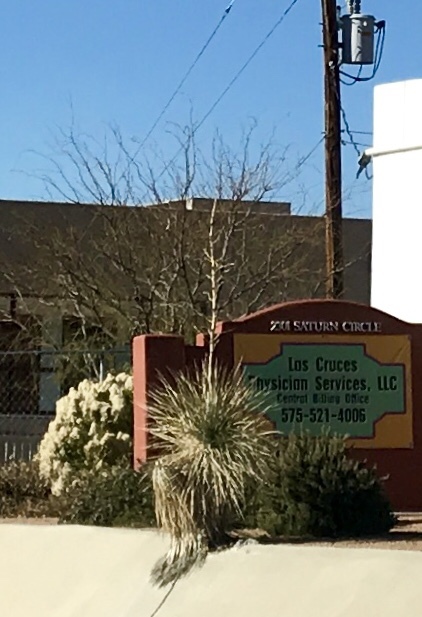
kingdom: Plantae
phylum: Tracheophyta
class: Liliopsida
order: Asparagales
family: Asparagaceae
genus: Yucca
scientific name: Yucca elata
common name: Palmella
